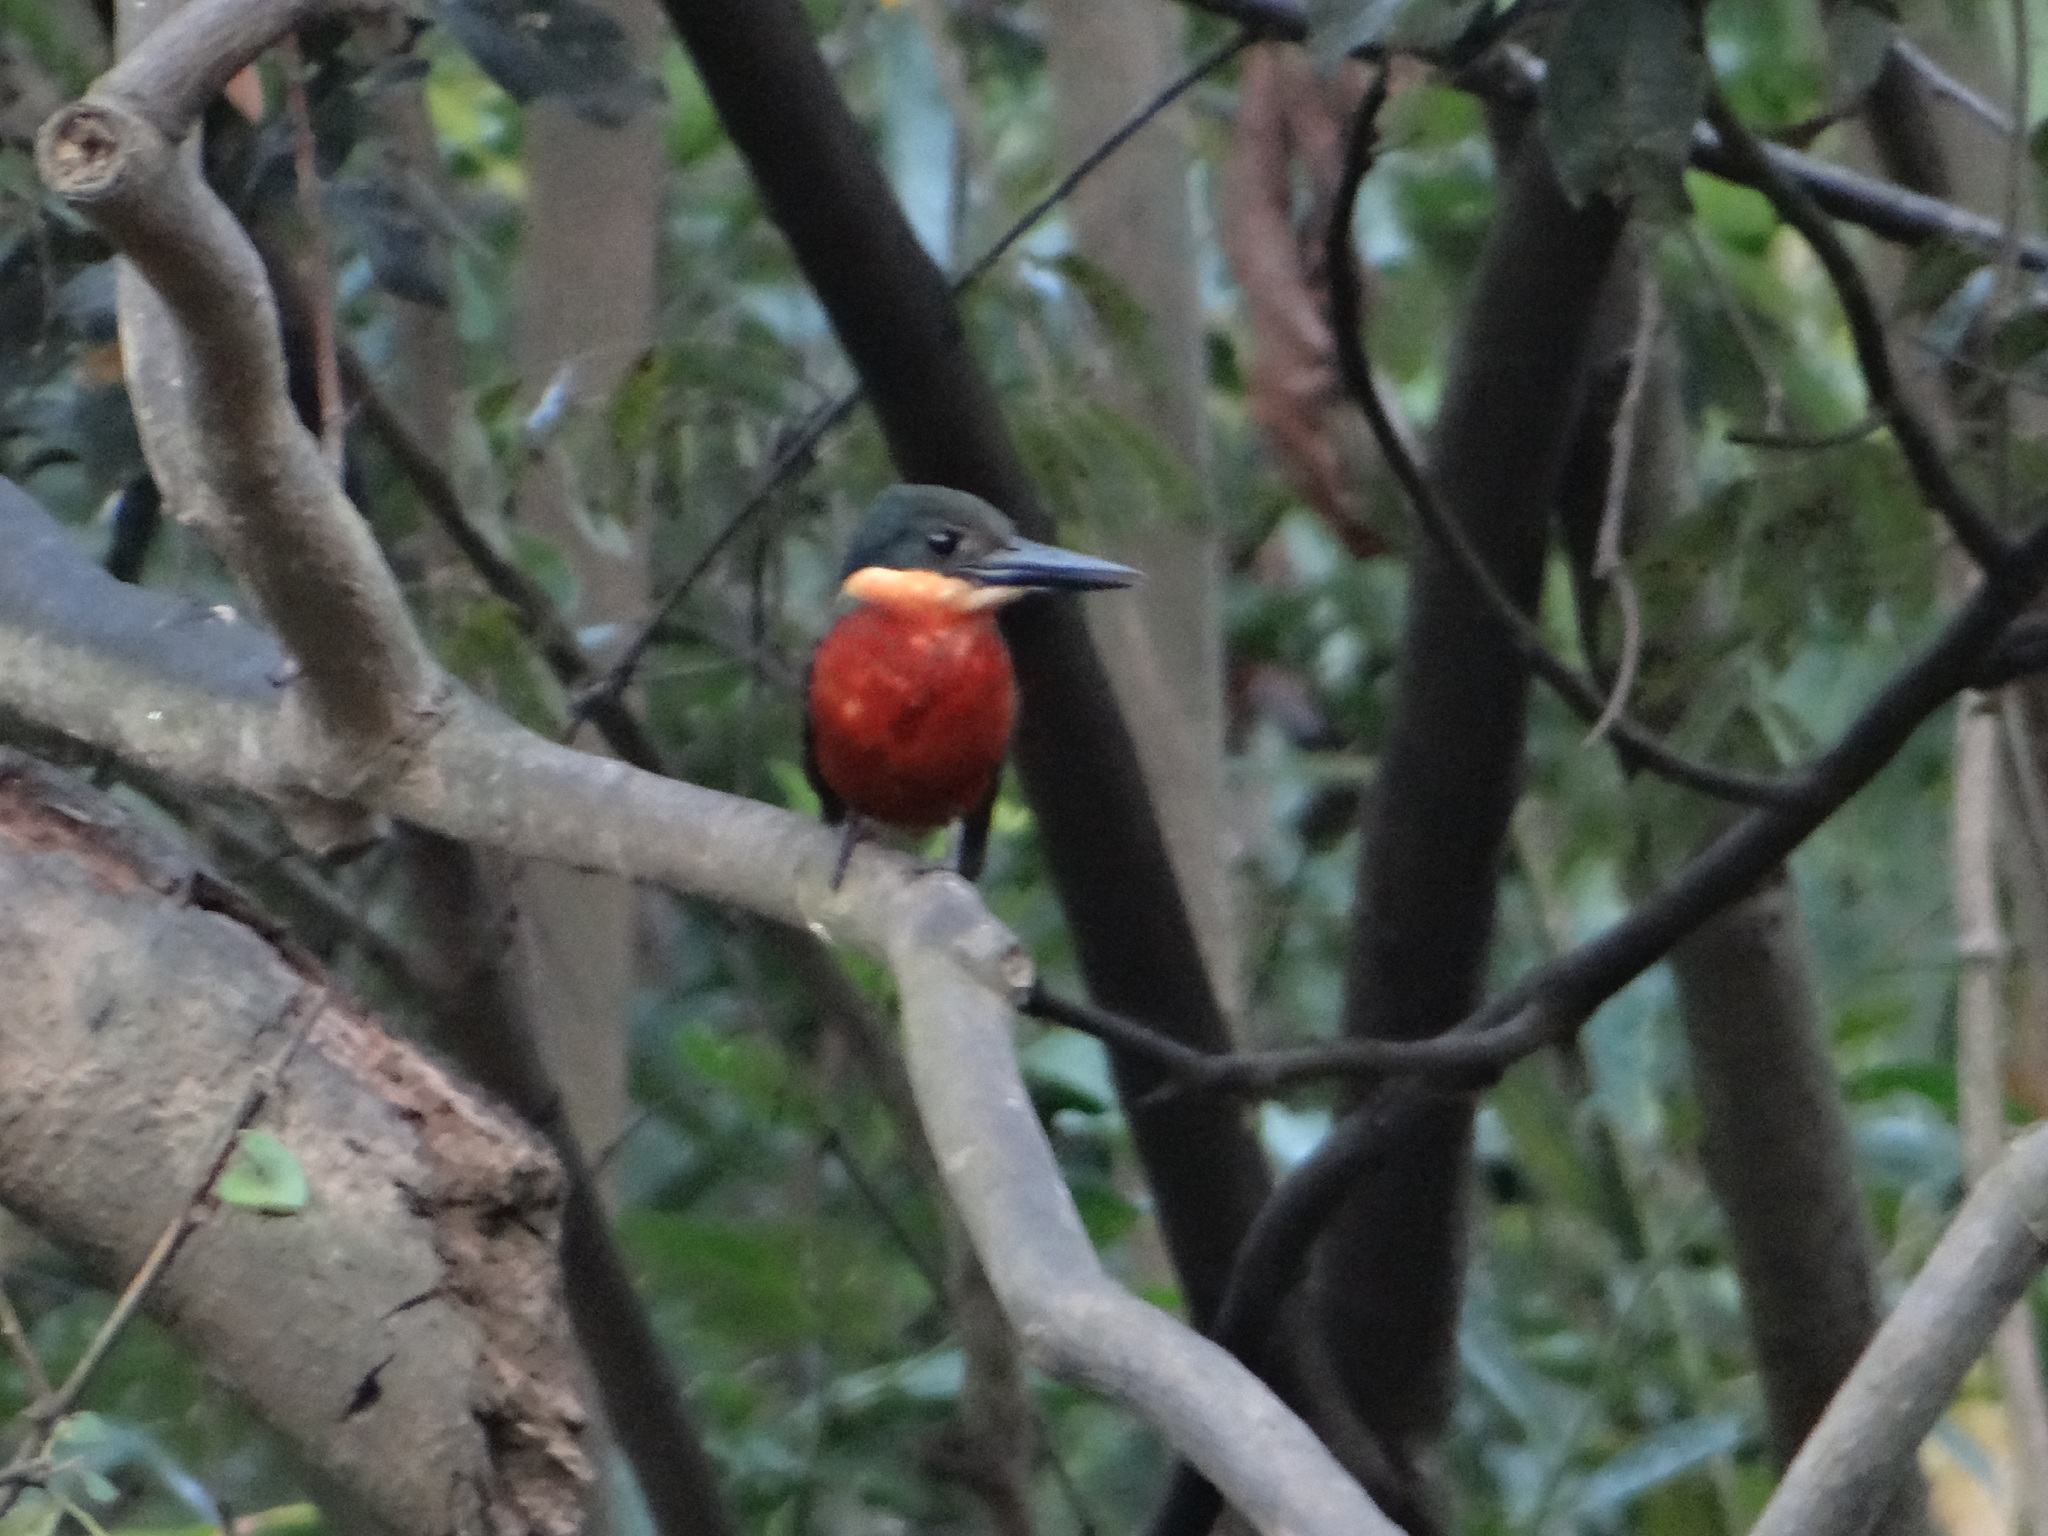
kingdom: Animalia
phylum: Chordata
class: Aves
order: Coraciiformes
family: Alcedinidae
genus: Chloroceryle
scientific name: Chloroceryle inda
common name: Green-and-rufous kingfisher
